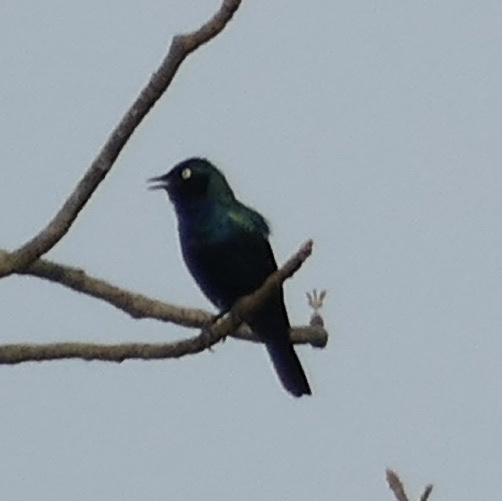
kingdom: Animalia
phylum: Chordata
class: Aves
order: Passeriformes
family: Sturnidae
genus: Lamprotornis
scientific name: Lamprotornis splendidus
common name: Splendid starling
